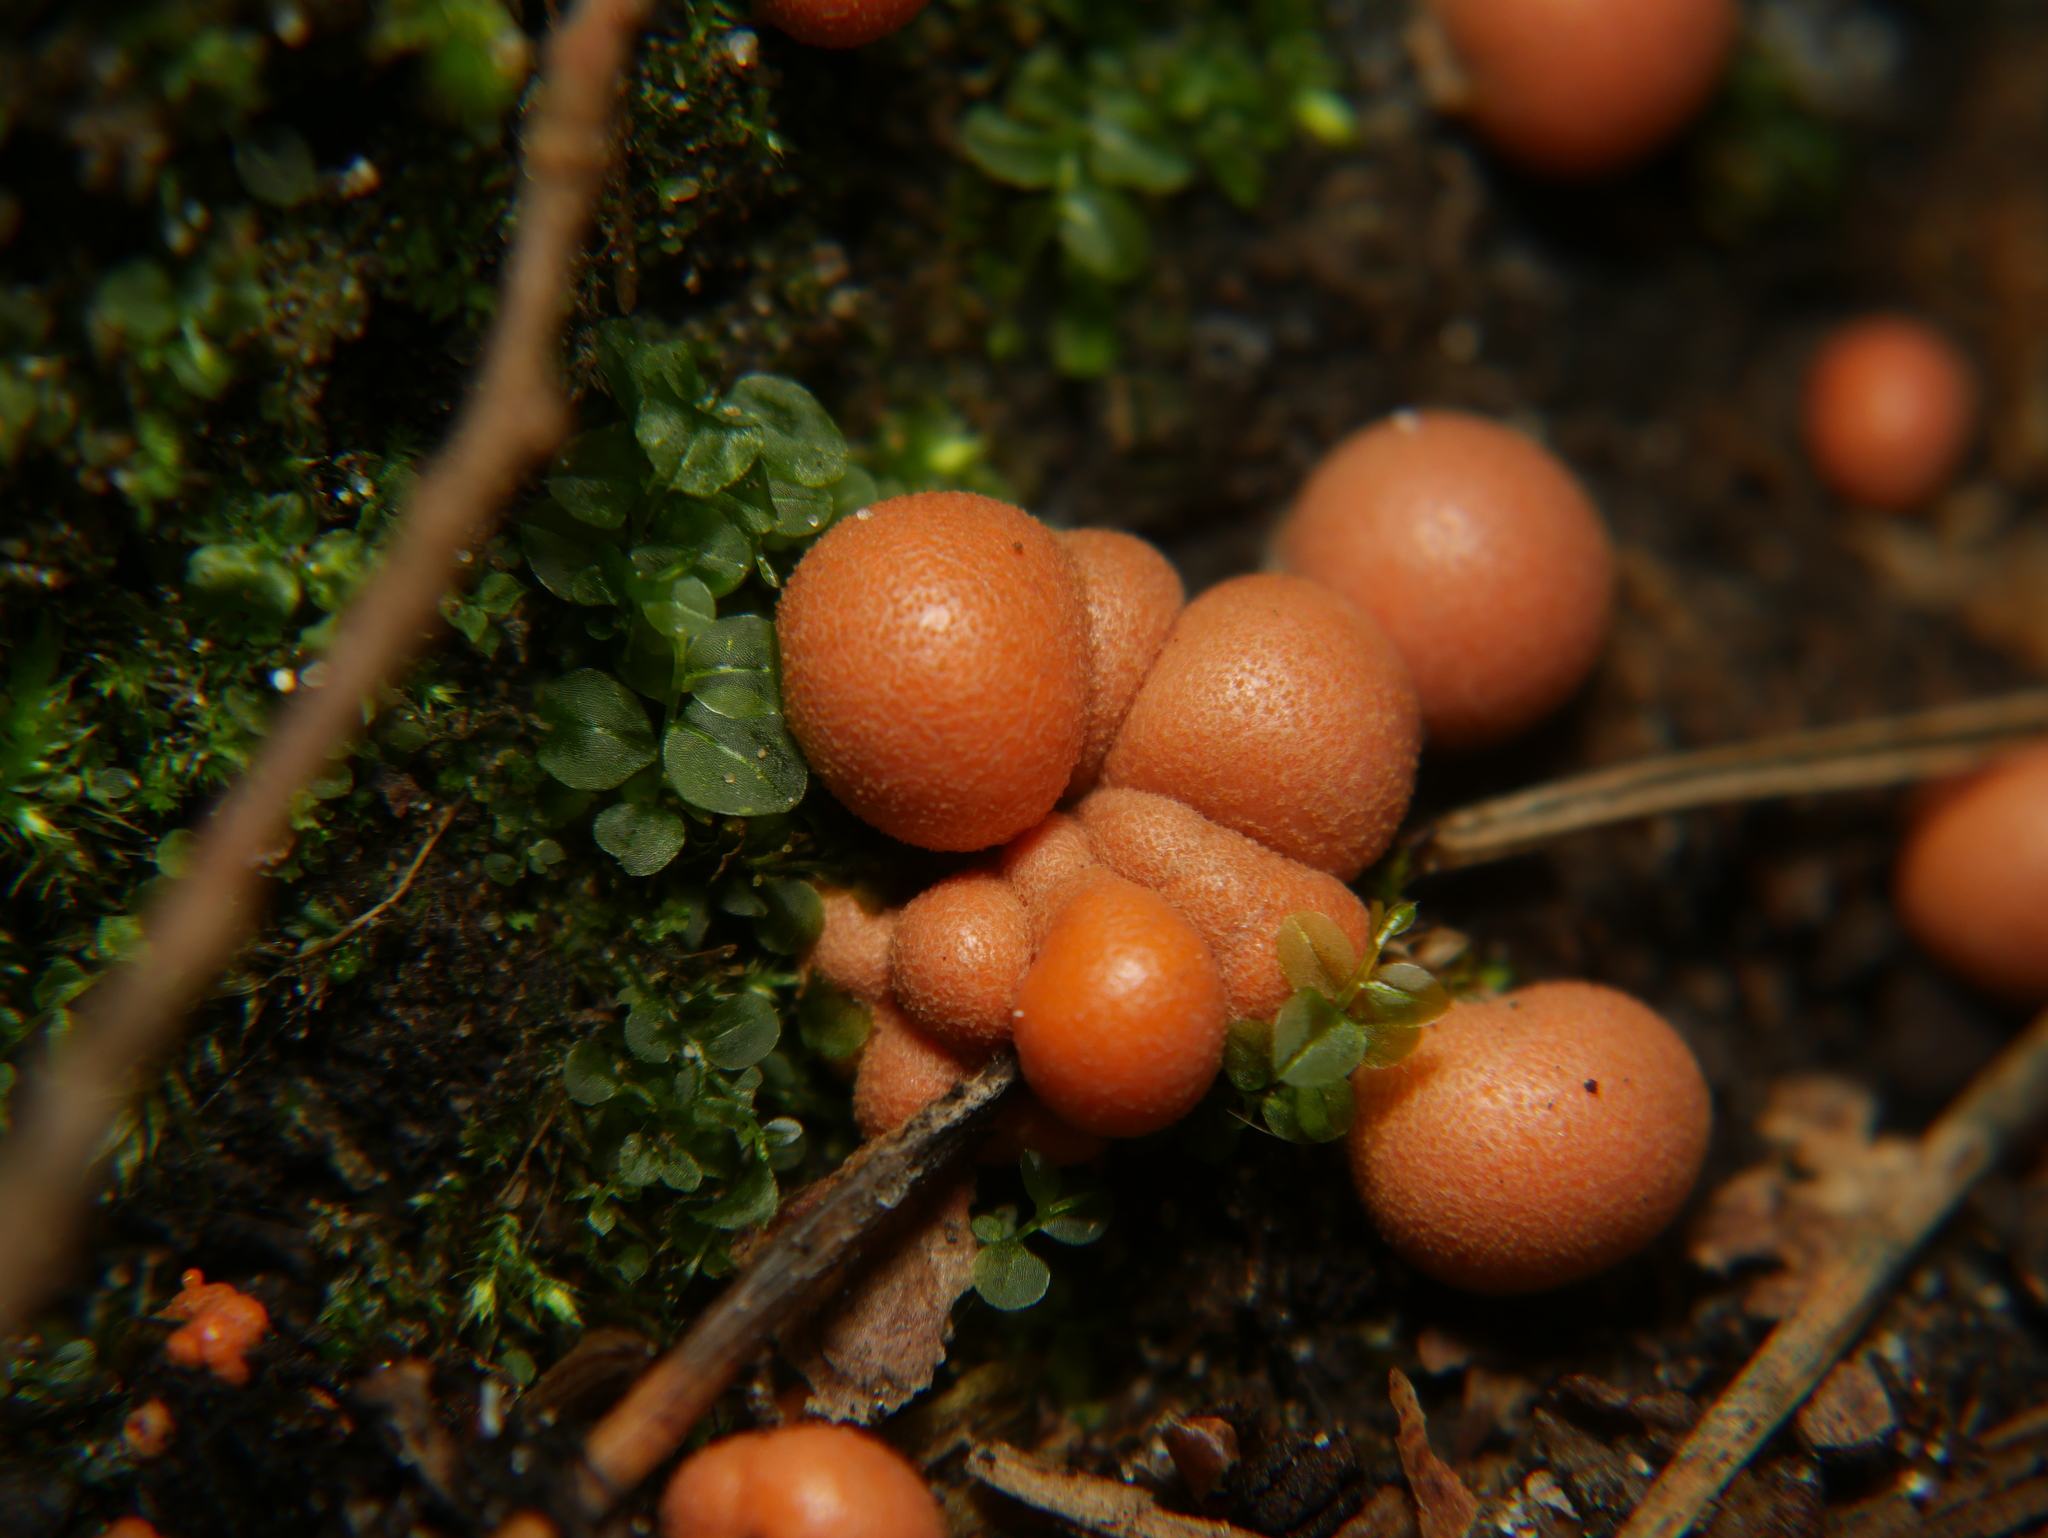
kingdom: Protozoa
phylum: Mycetozoa
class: Myxomycetes
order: Cribrariales
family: Tubiferaceae
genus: Lycogala
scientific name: Lycogala epidendrum
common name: Wolf's milk
